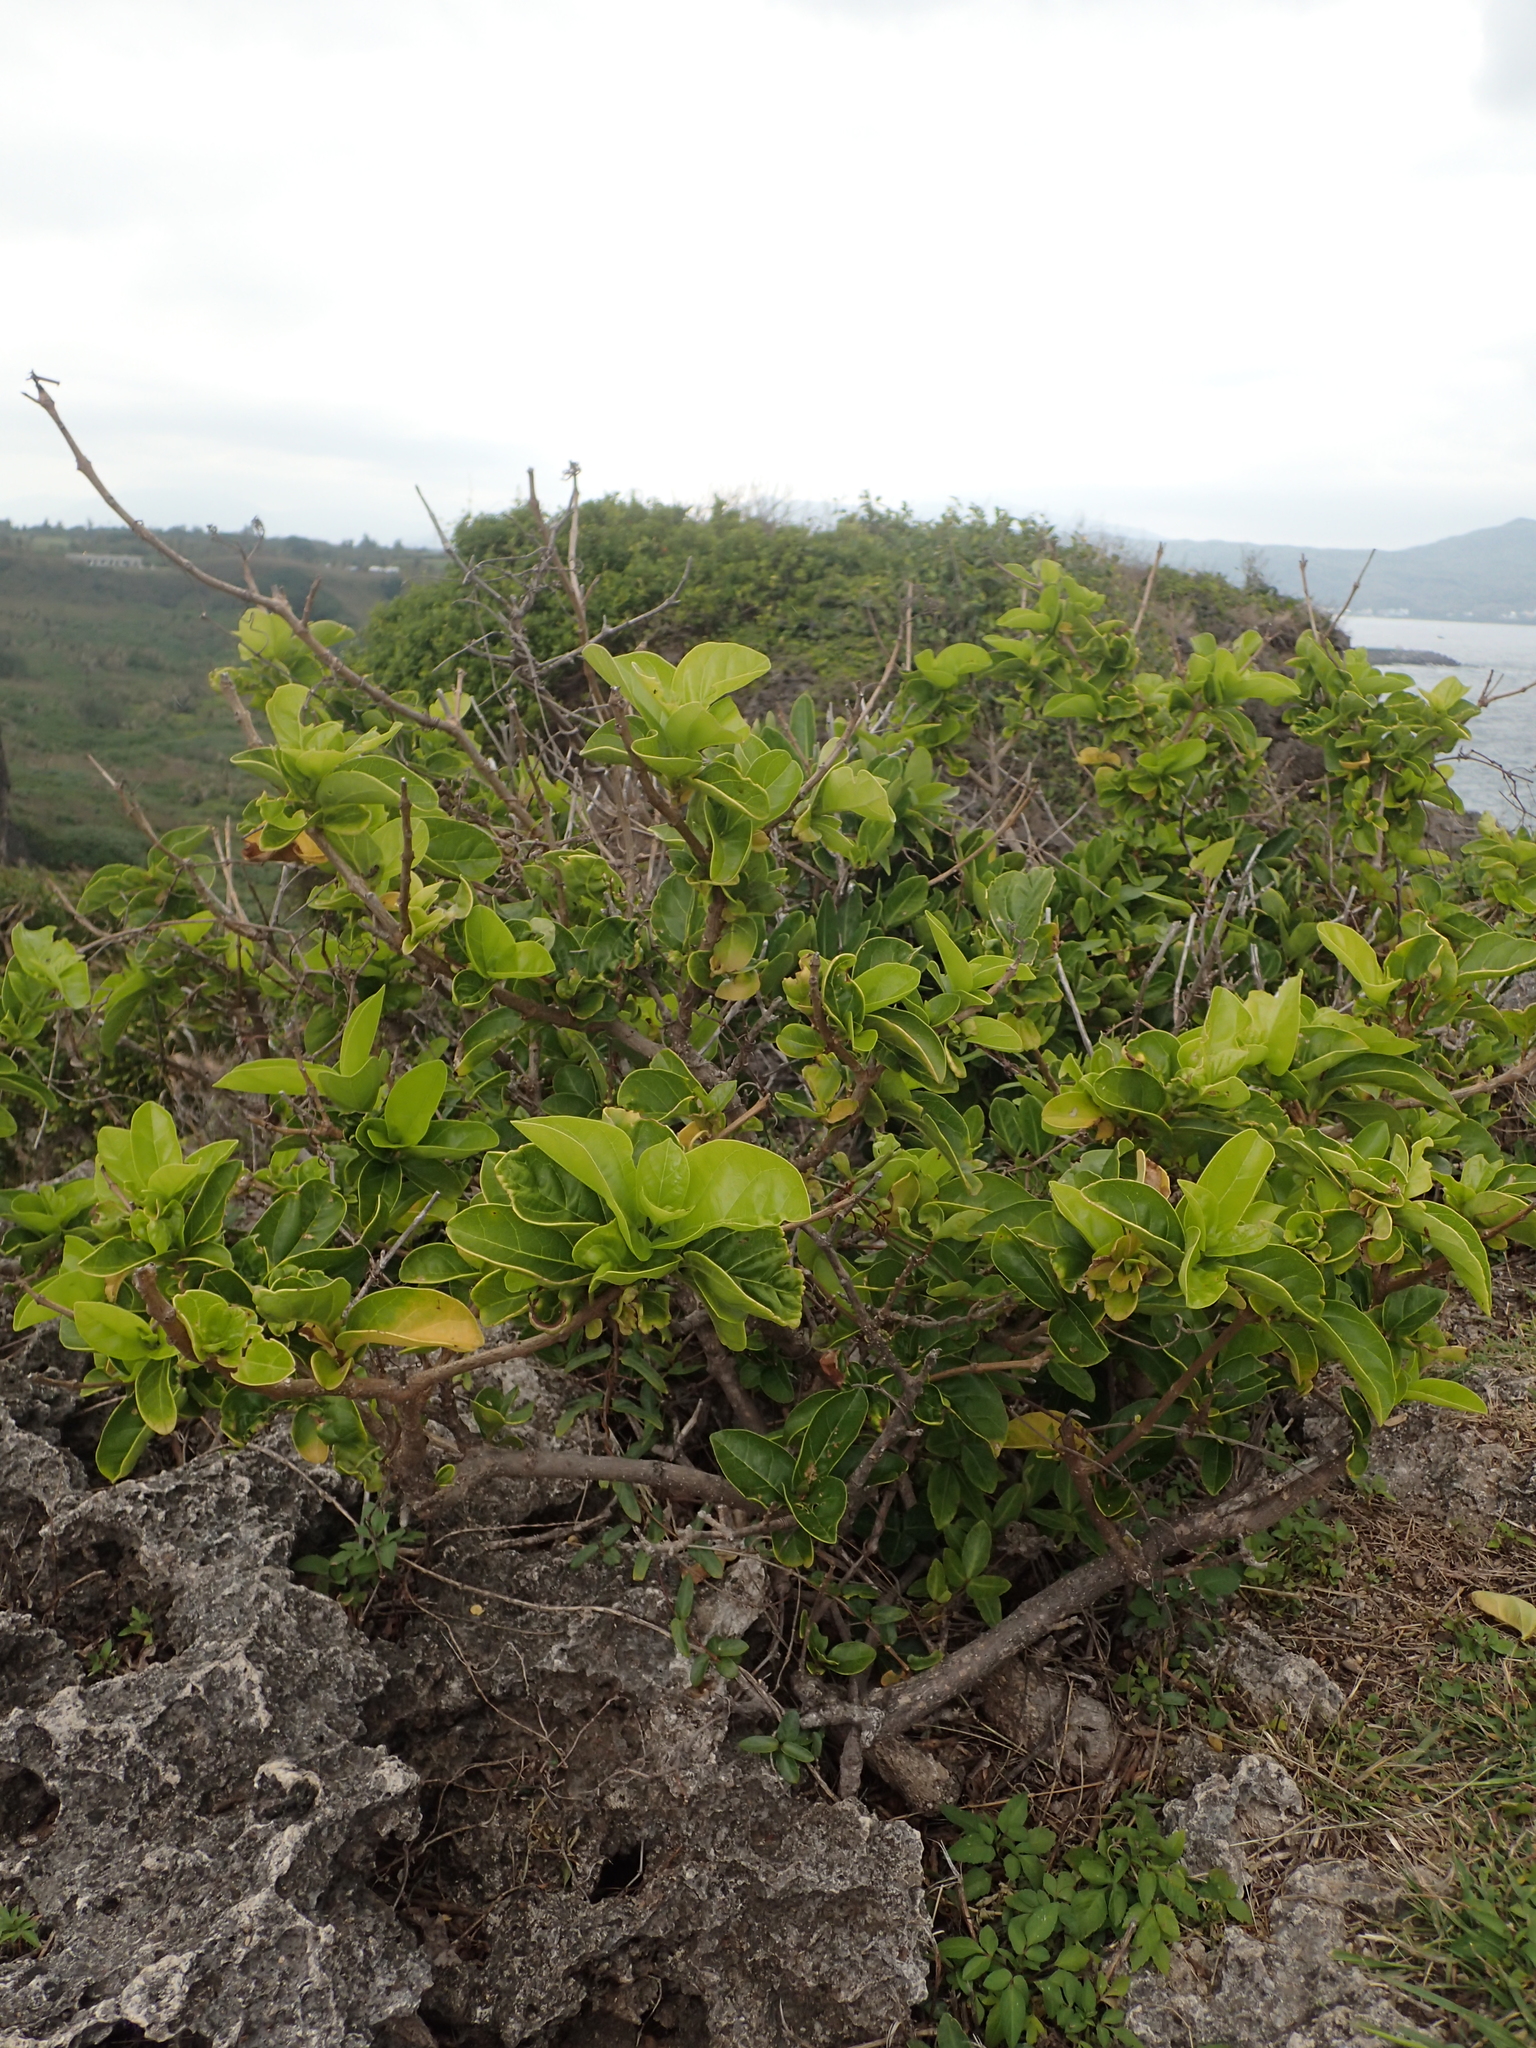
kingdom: Plantae
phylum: Tracheophyta
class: Magnoliopsida
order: Lamiales
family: Lamiaceae
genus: Premna
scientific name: Premna serratifolia
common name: Bastard guelder
